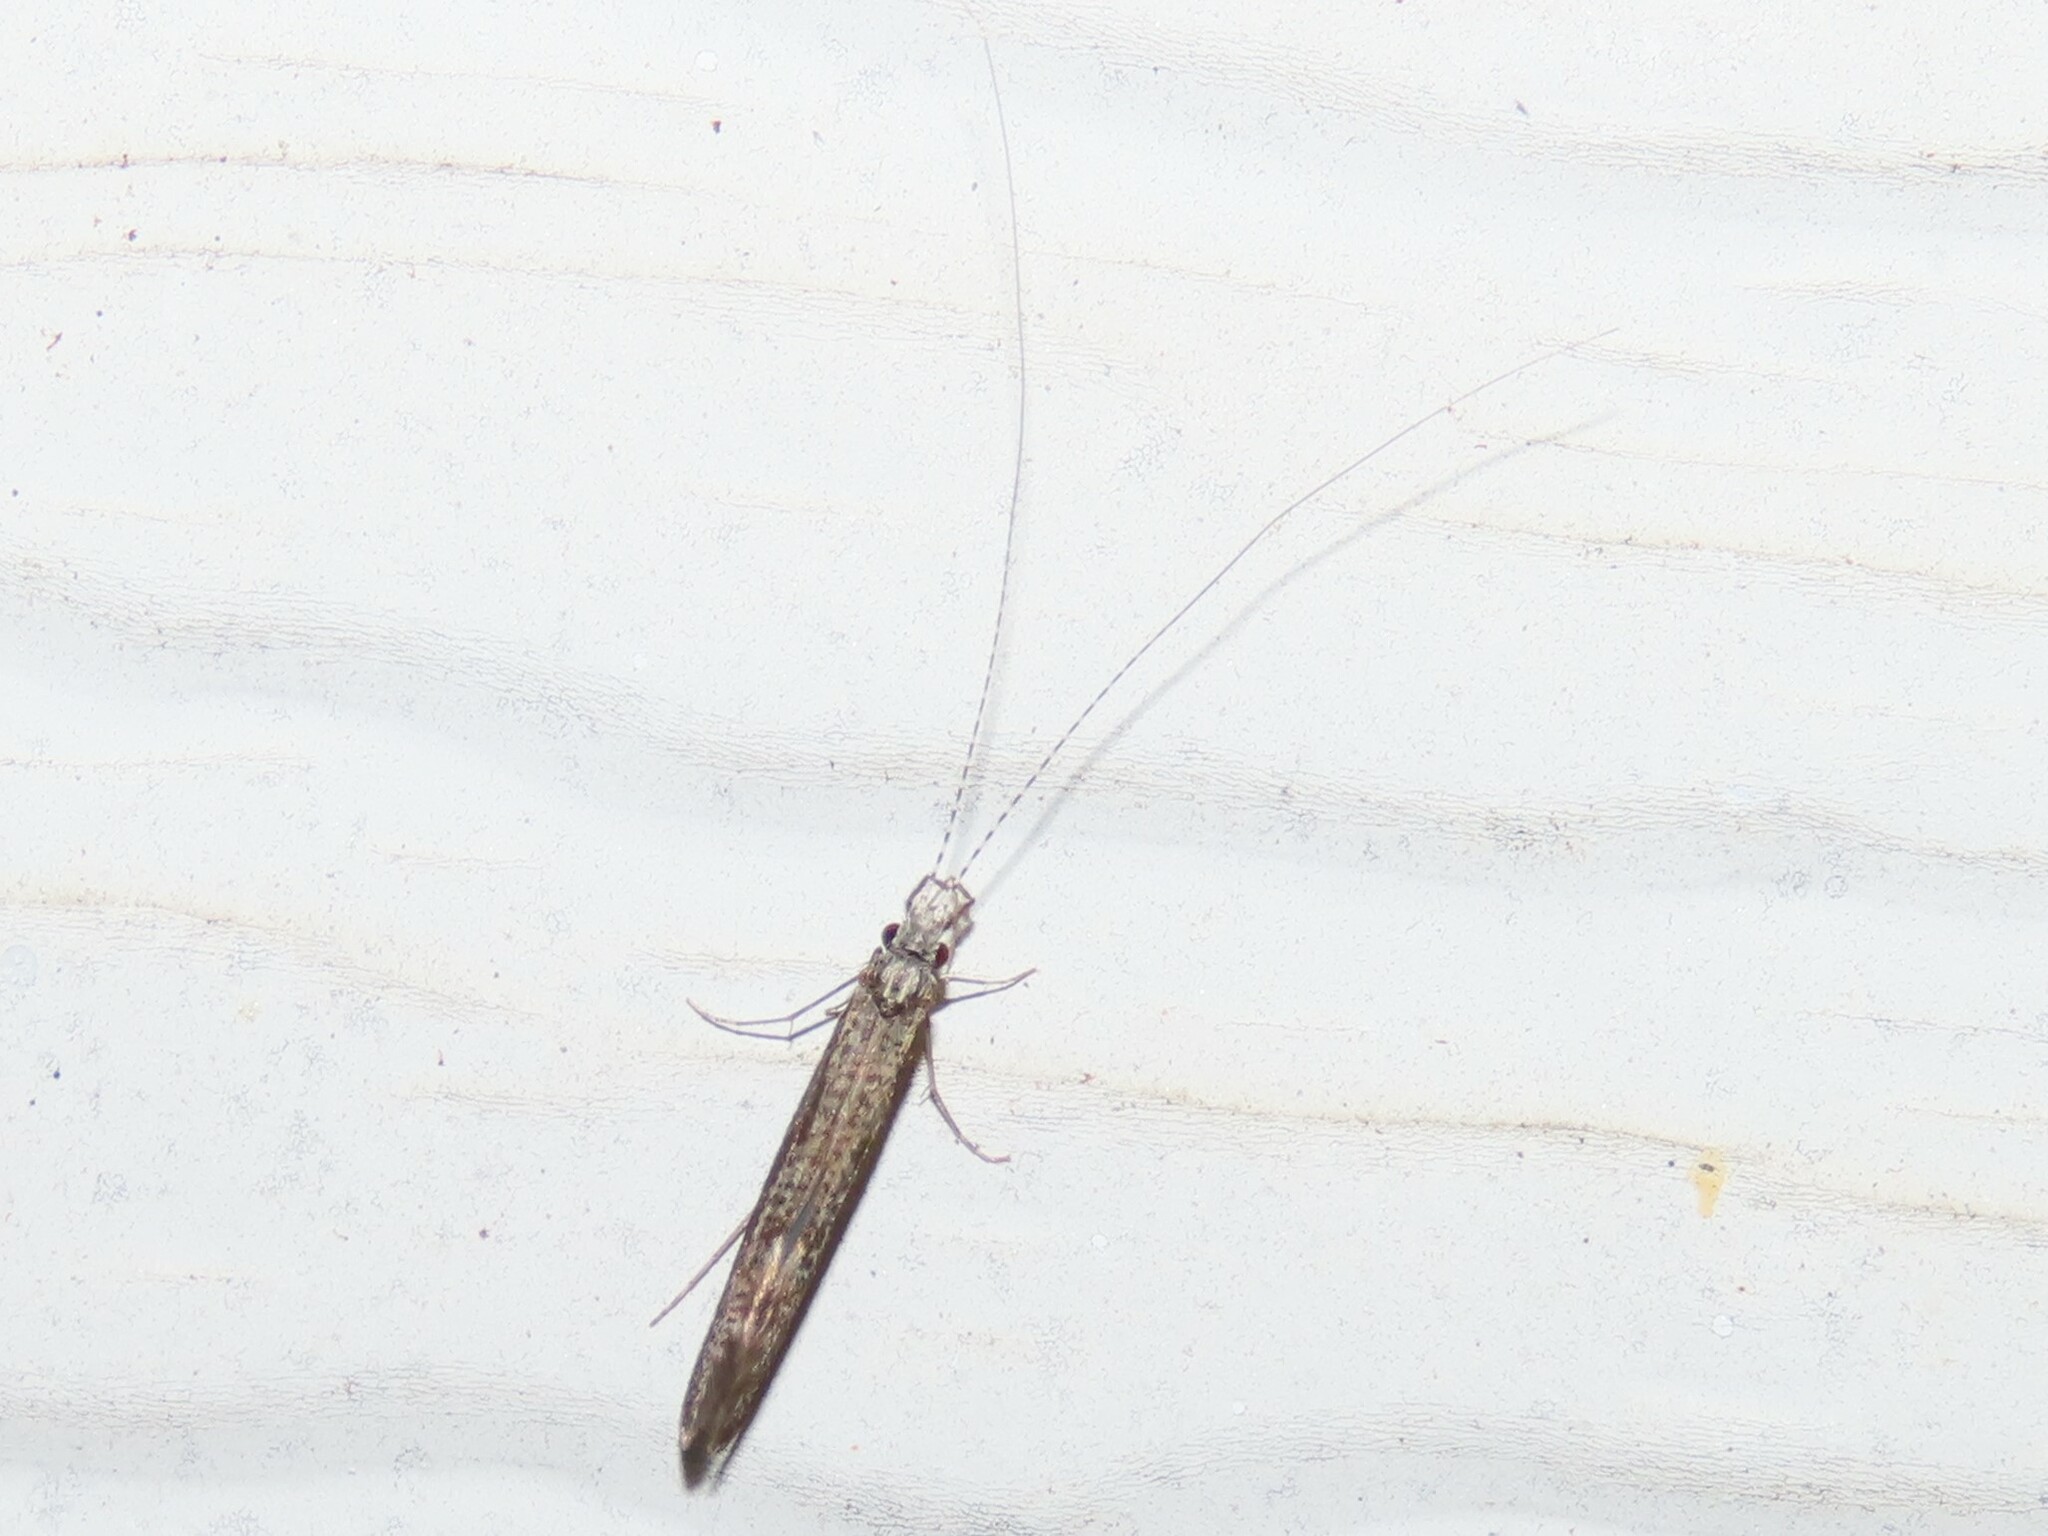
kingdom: Animalia
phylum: Arthropoda
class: Insecta
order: Trichoptera
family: Leptoceridae
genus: Leptocerus
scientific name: Leptocerus americanus
